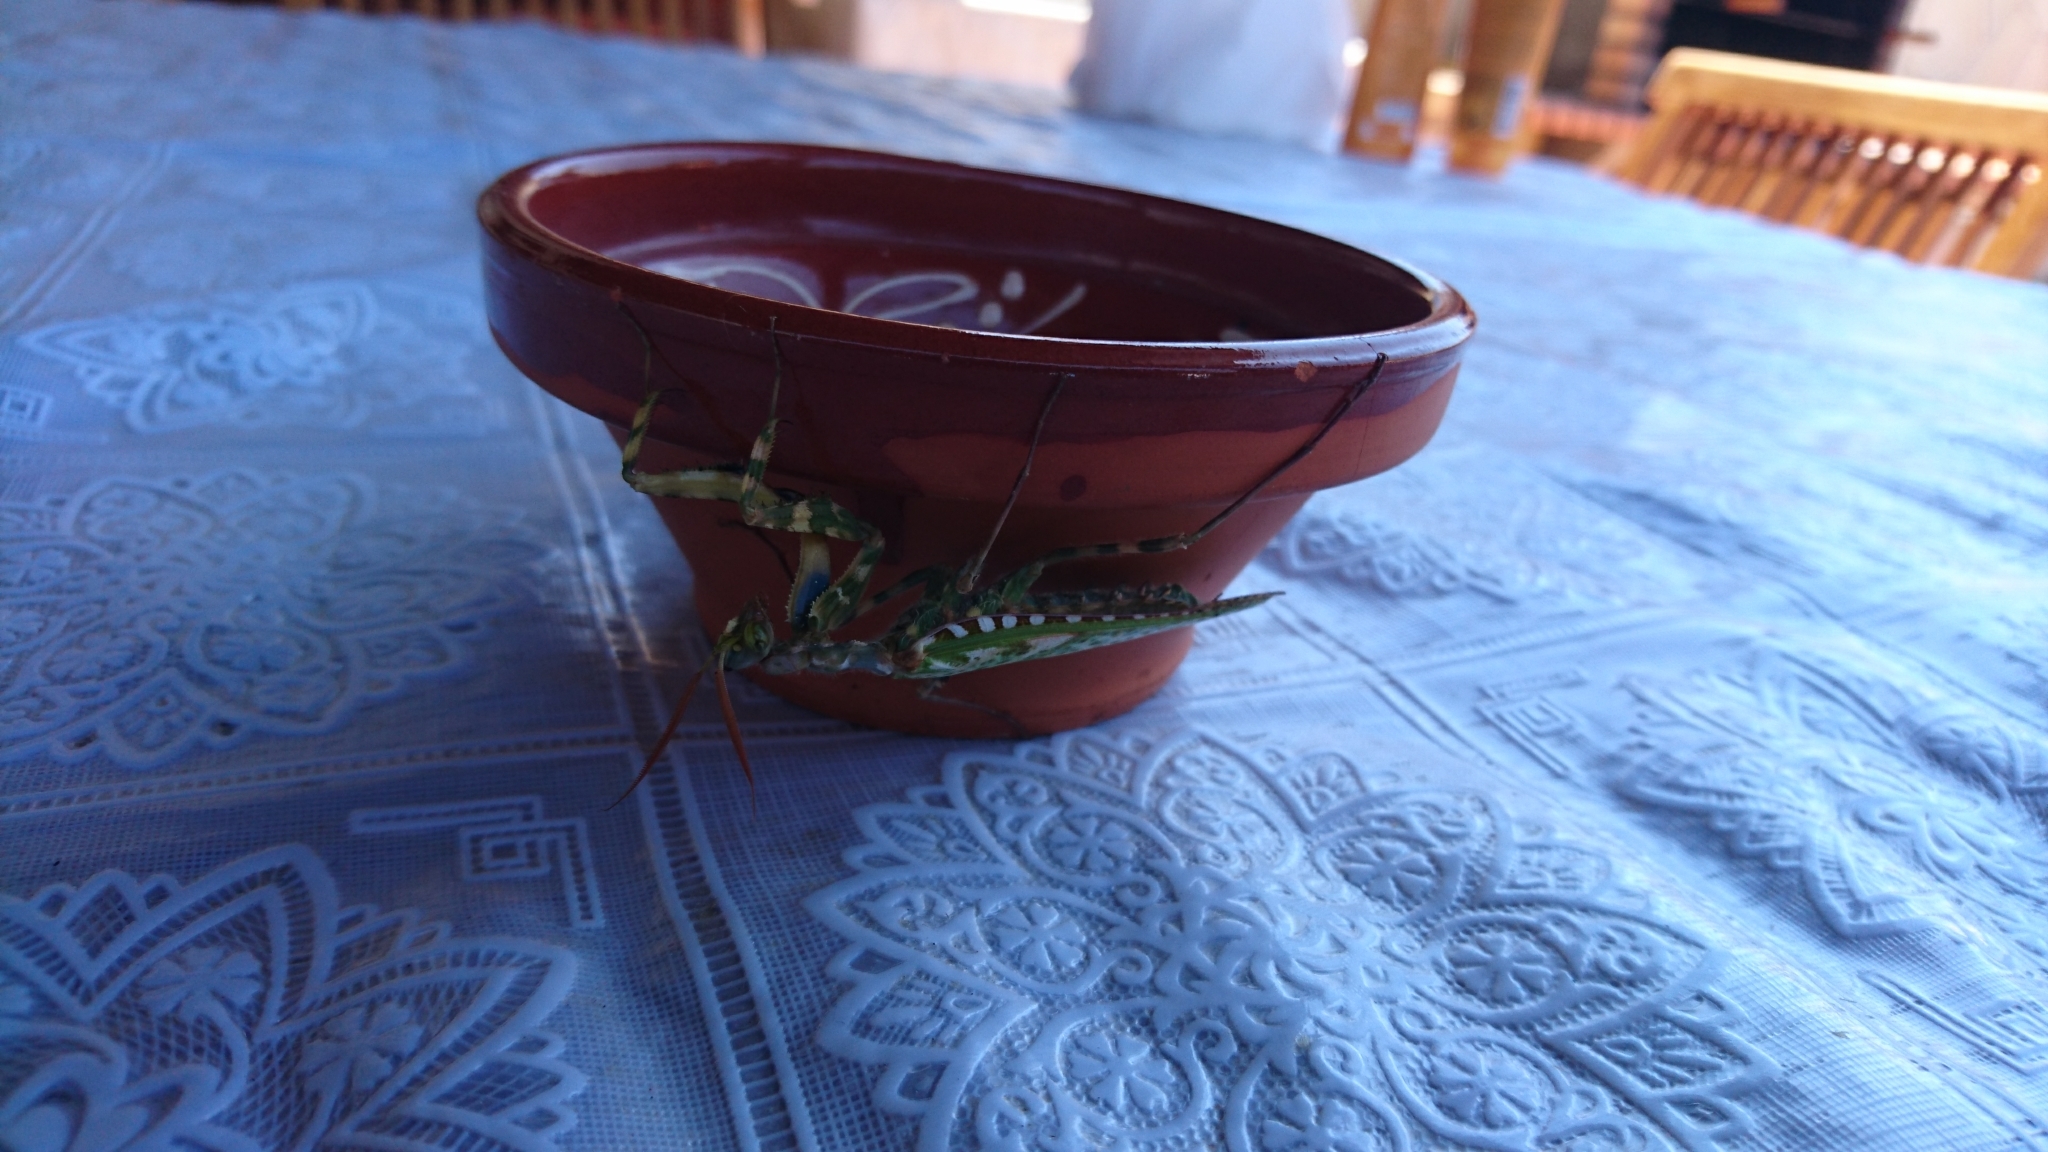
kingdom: Animalia
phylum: Arthropoda
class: Insecta
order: Mantodea
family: Empusidae
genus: Blepharopsis
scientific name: Blepharopsis mendica
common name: Devil's flower mantis
